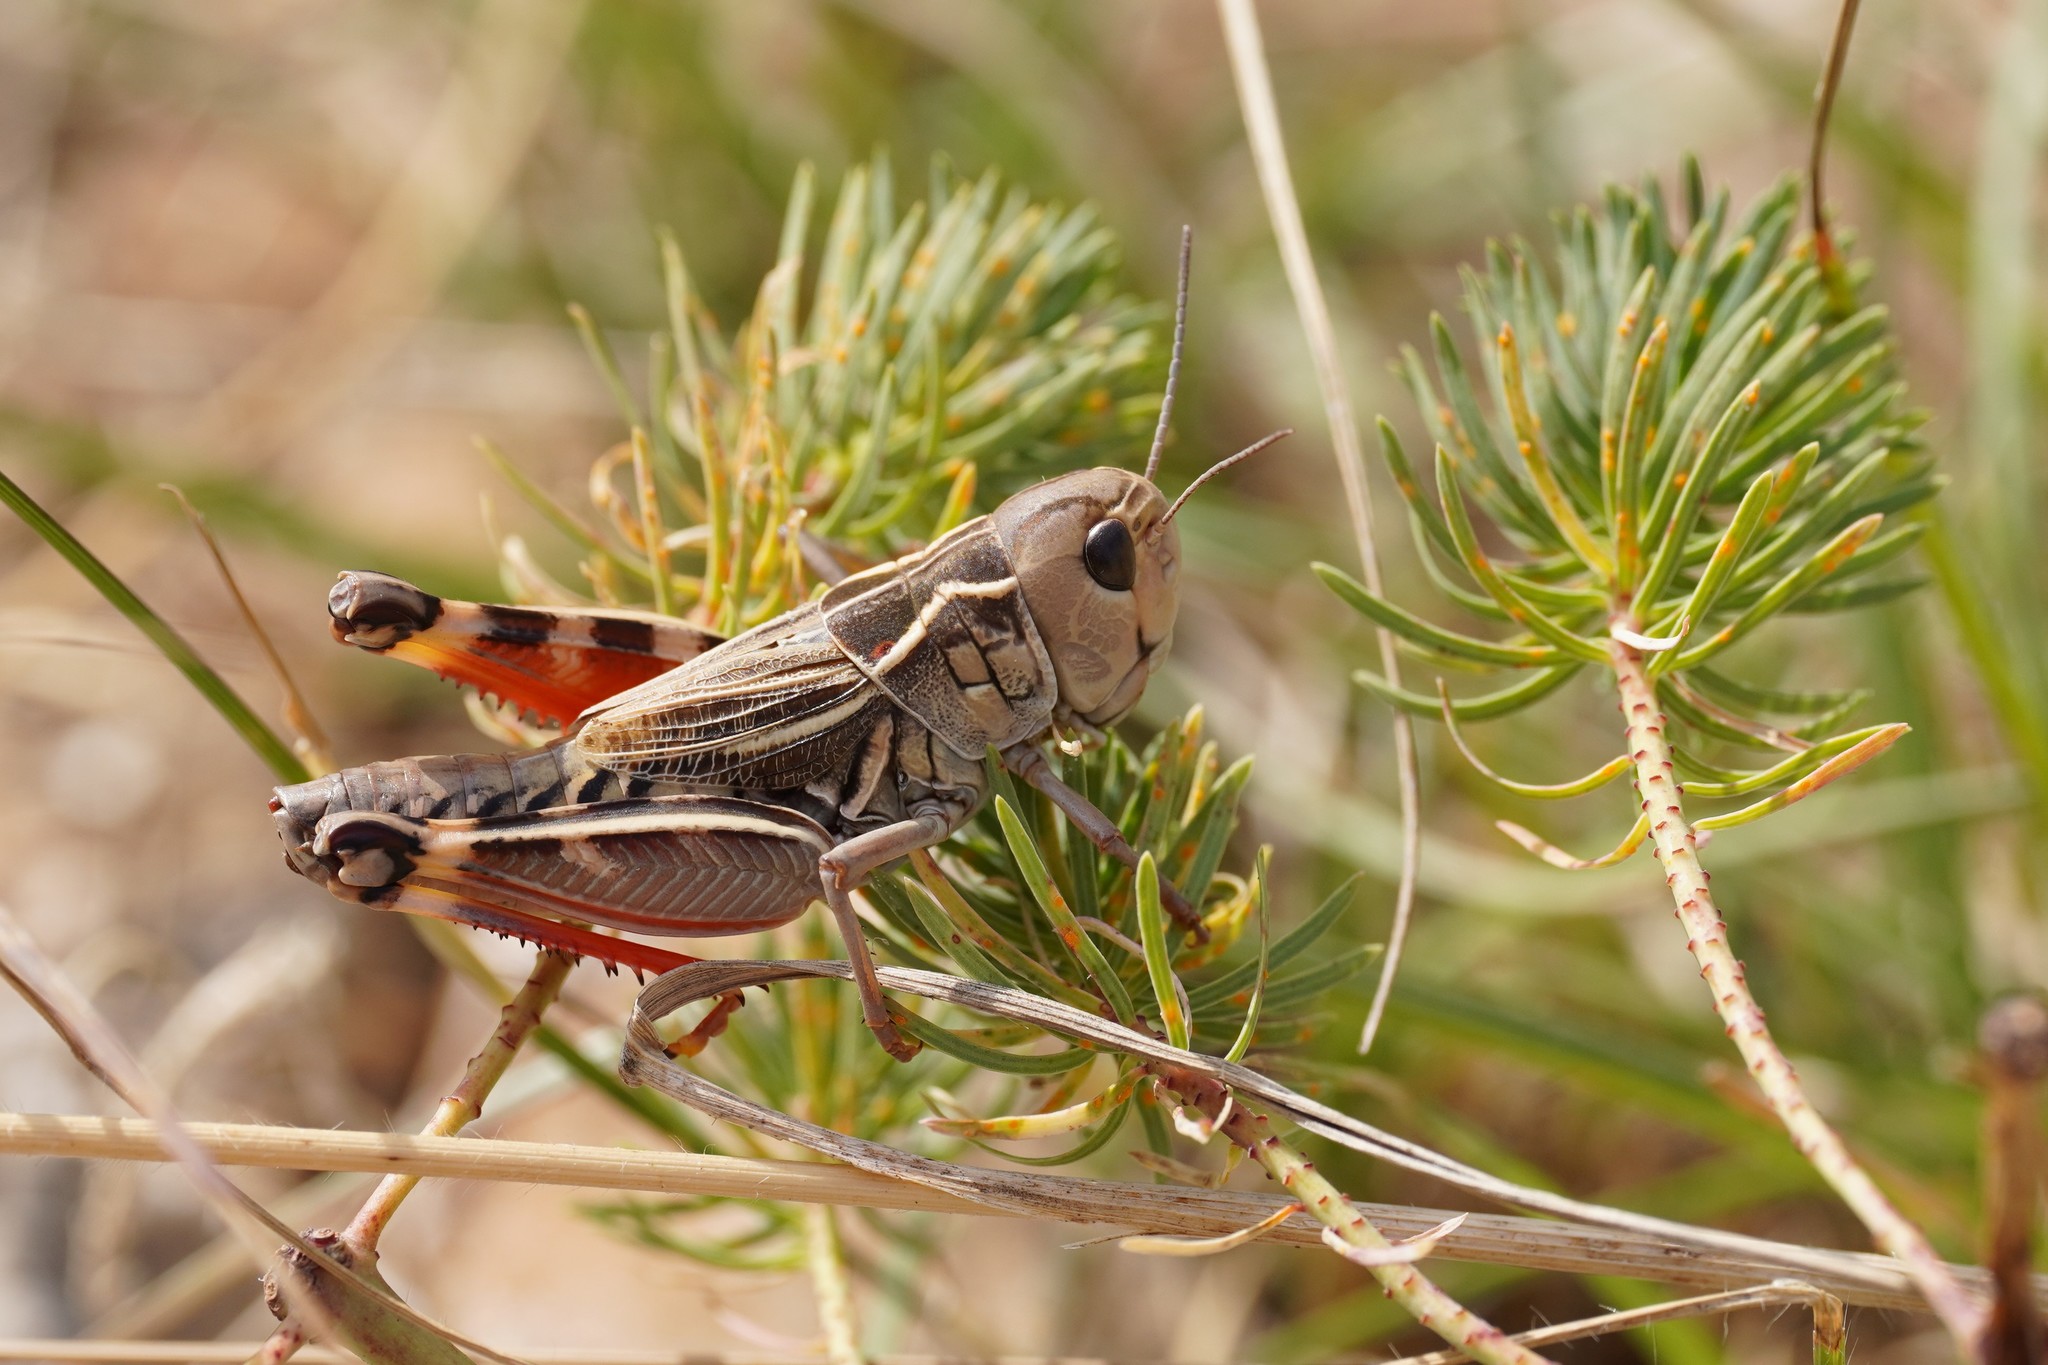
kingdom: Animalia
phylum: Arthropoda
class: Insecta
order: Orthoptera
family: Acrididae
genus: Arcyptera
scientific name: Arcyptera kheili
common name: Provence banded grasshopper
